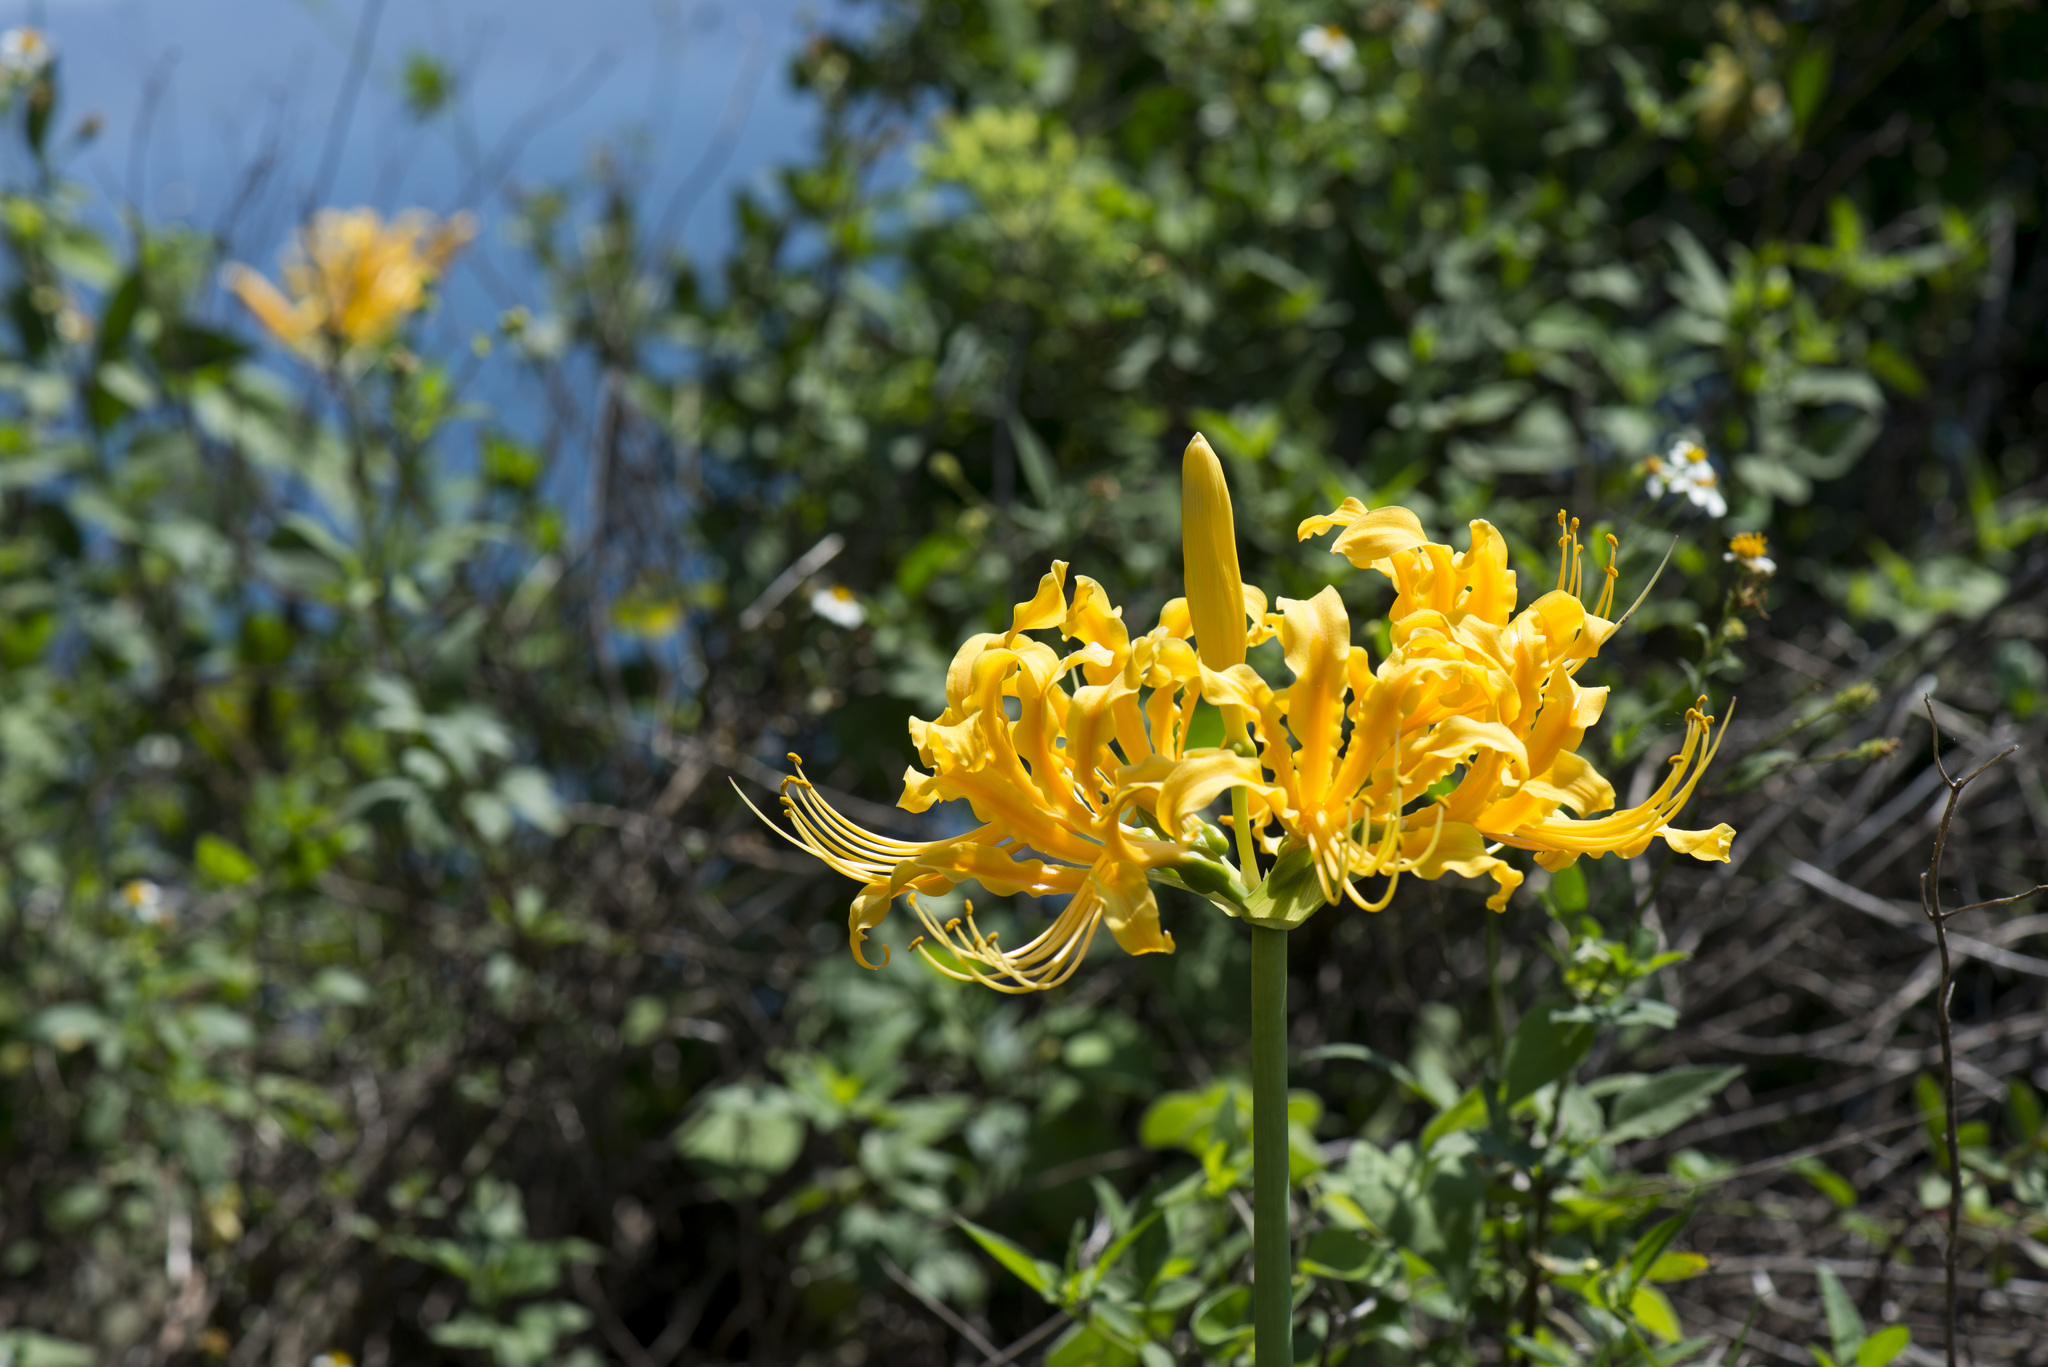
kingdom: Plantae
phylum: Tracheophyta
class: Liliopsida
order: Asparagales
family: Amaryllidaceae
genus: Lycoris
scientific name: Lycoris aurea
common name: Golden hurricane-lily
